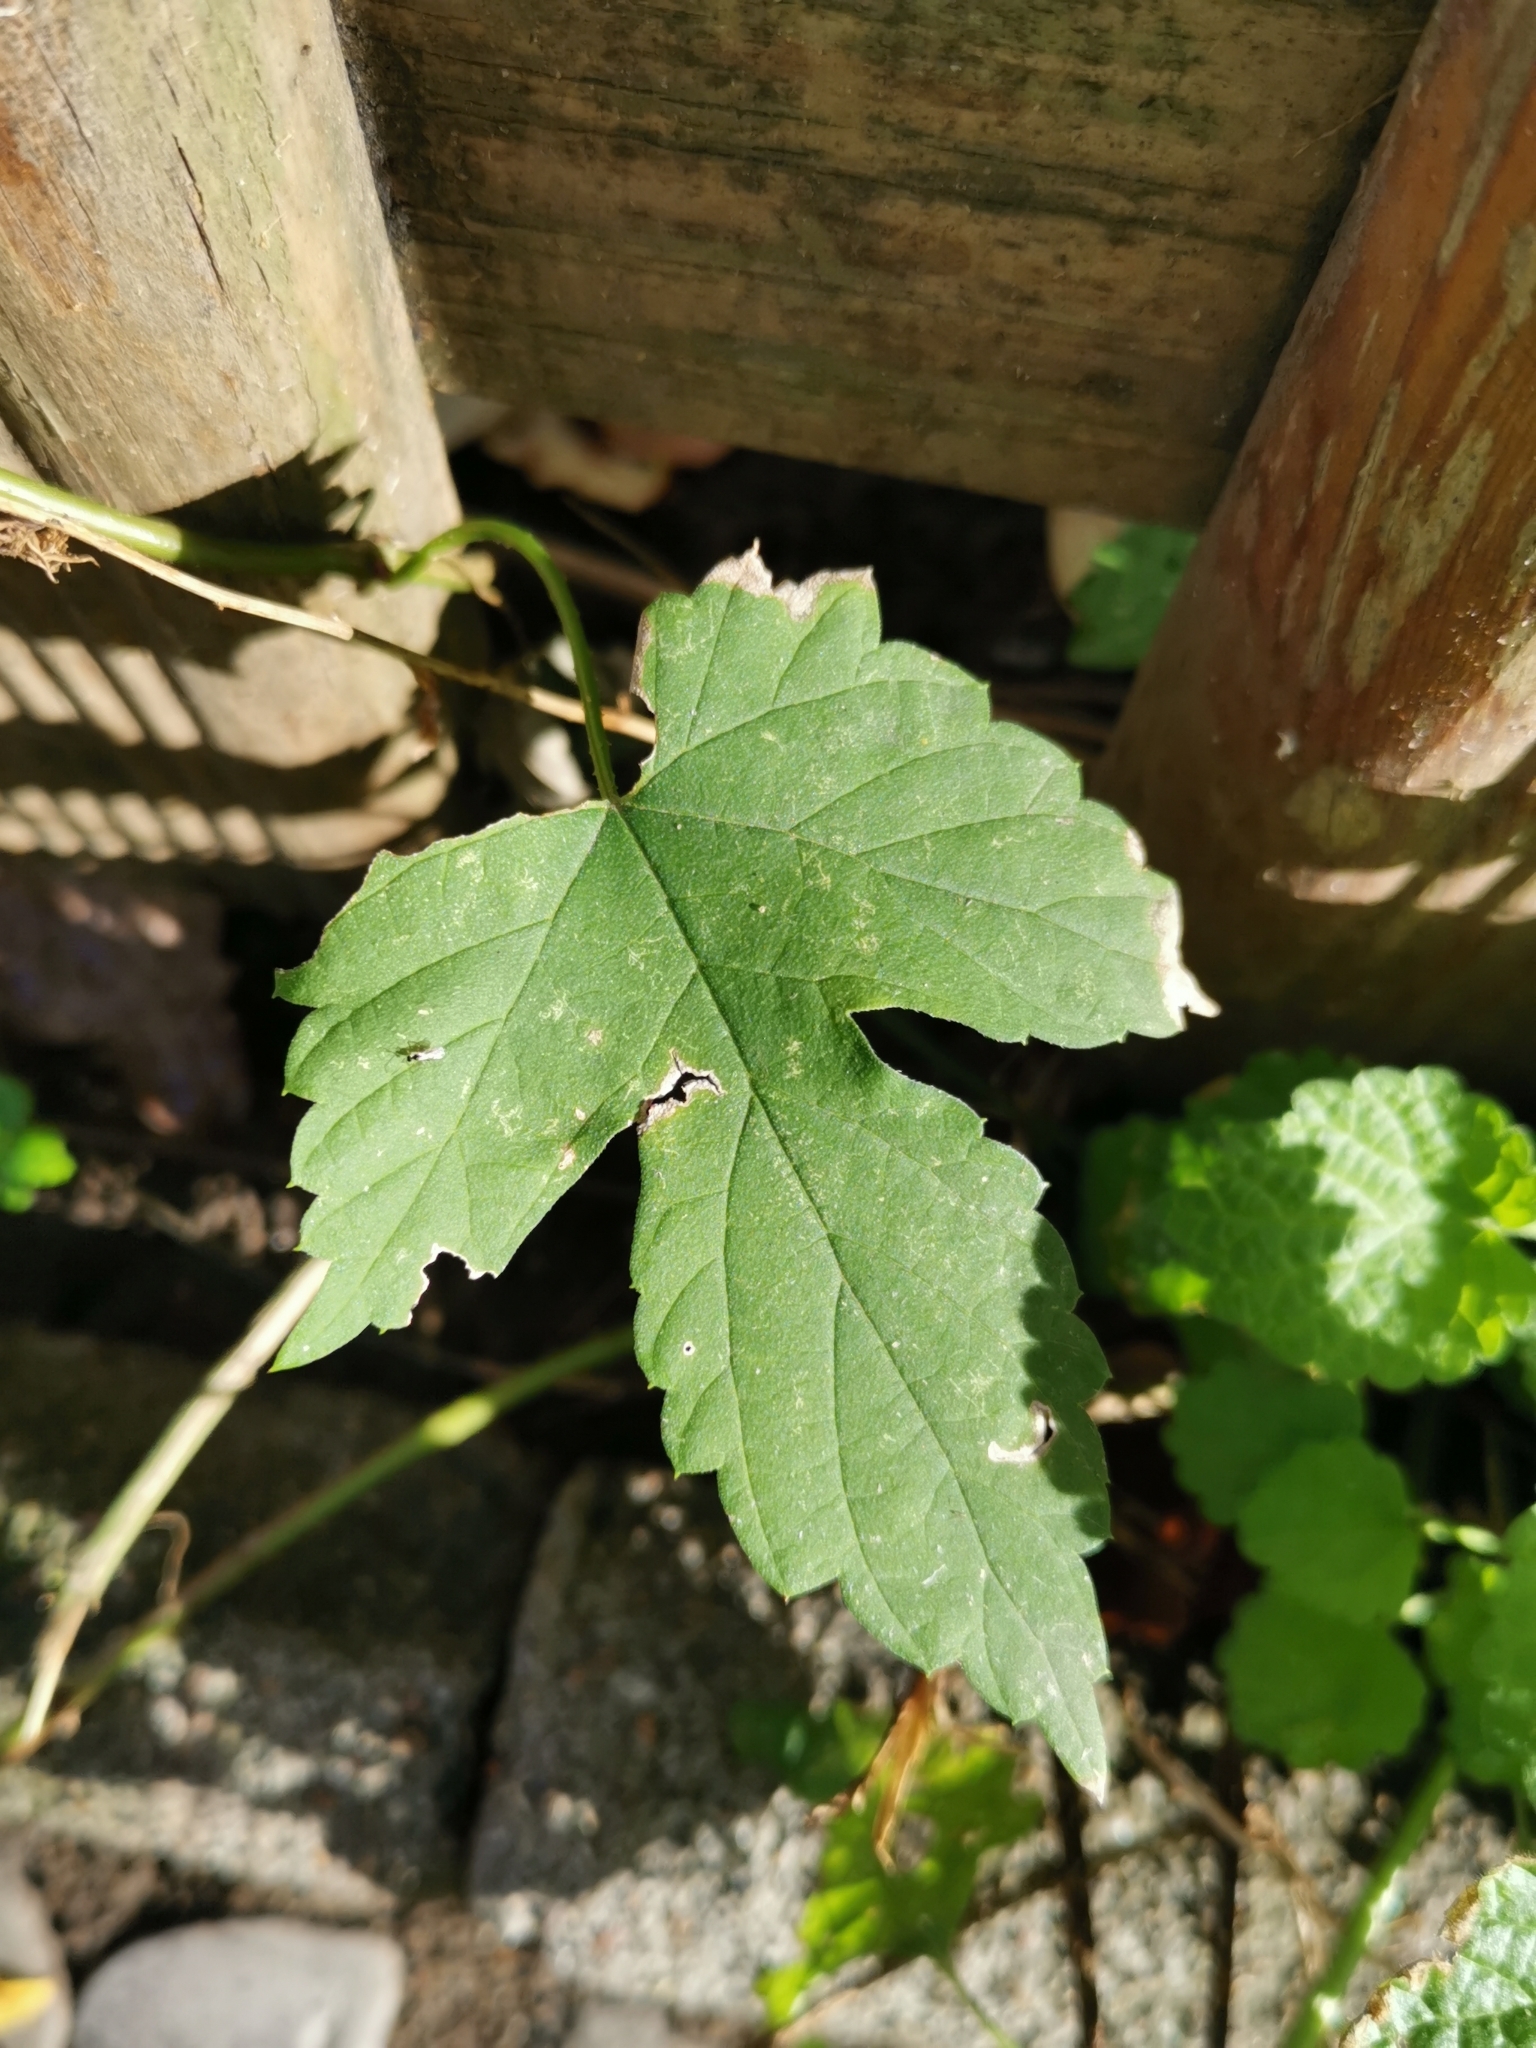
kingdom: Plantae
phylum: Tracheophyta
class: Magnoliopsida
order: Rosales
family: Cannabaceae
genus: Humulus
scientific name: Humulus lupulus
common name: Hop
